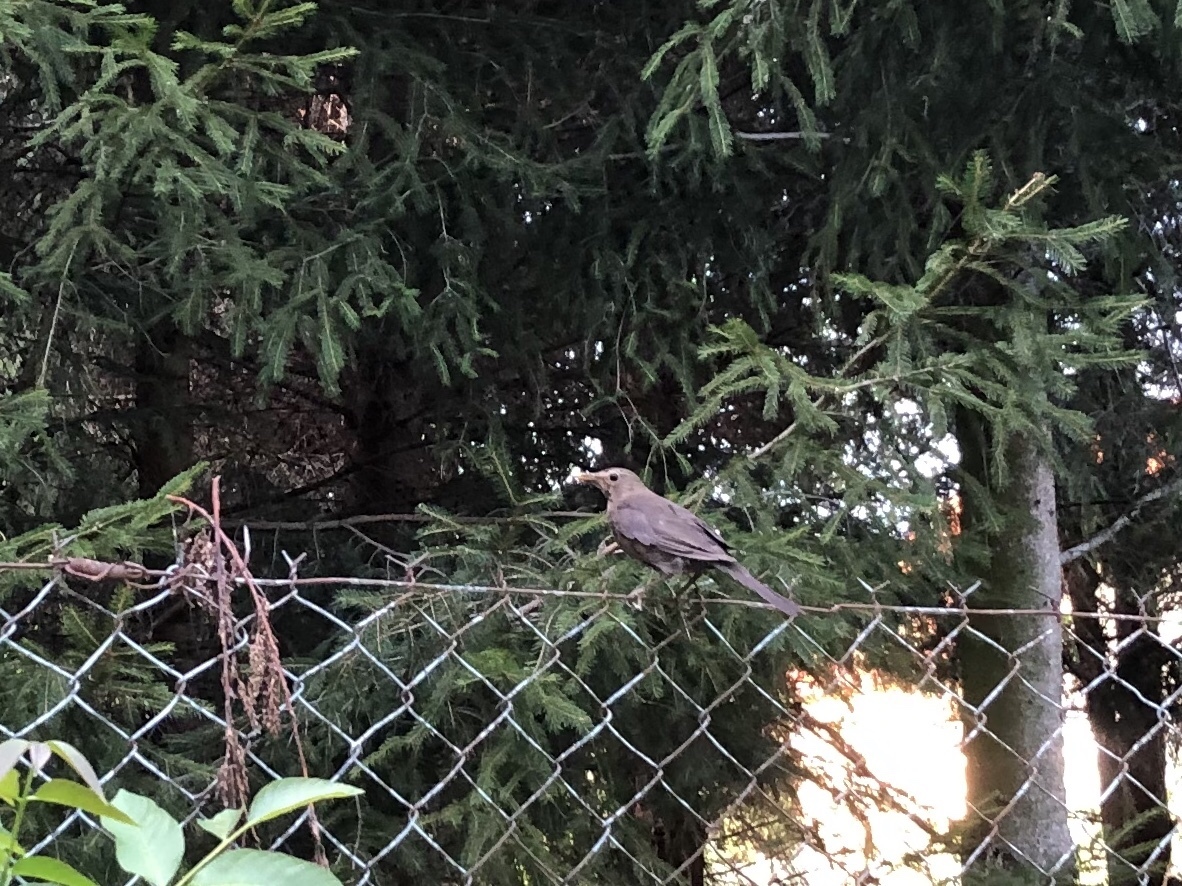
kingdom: Animalia
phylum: Chordata
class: Aves
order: Passeriformes
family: Turdidae
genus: Turdus
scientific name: Turdus merula
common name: Common blackbird
